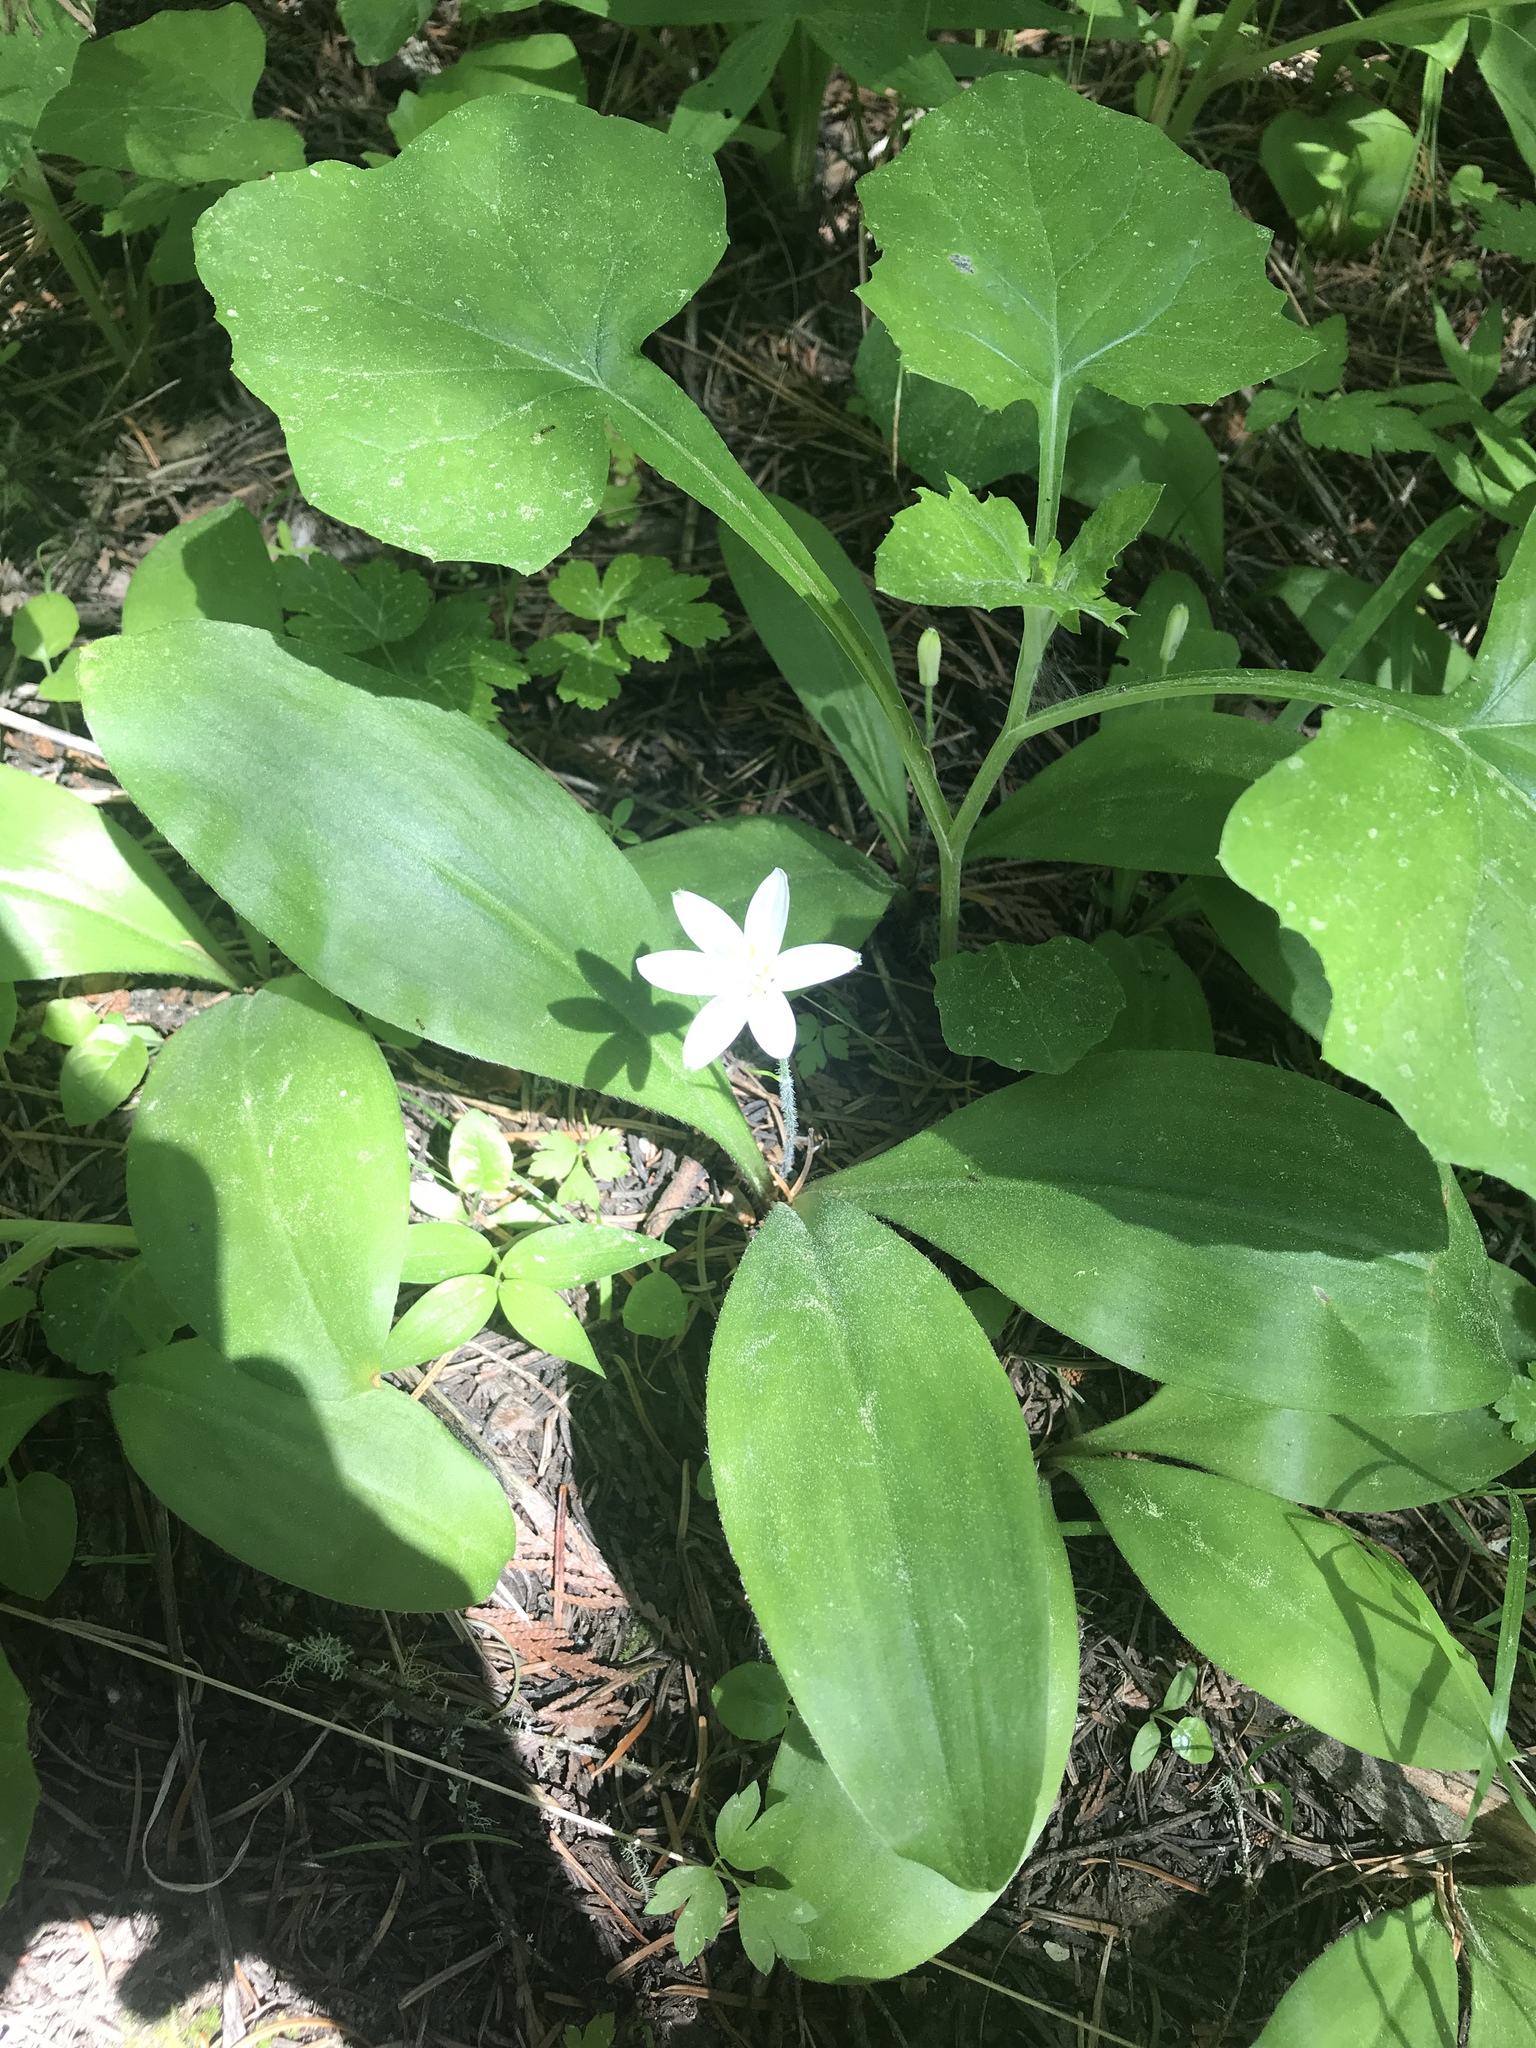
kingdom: Plantae
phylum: Tracheophyta
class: Liliopsida
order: Liliales
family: Liliaceae
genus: Clintonia
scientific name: Clintonia uniflora
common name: Queen's cup
